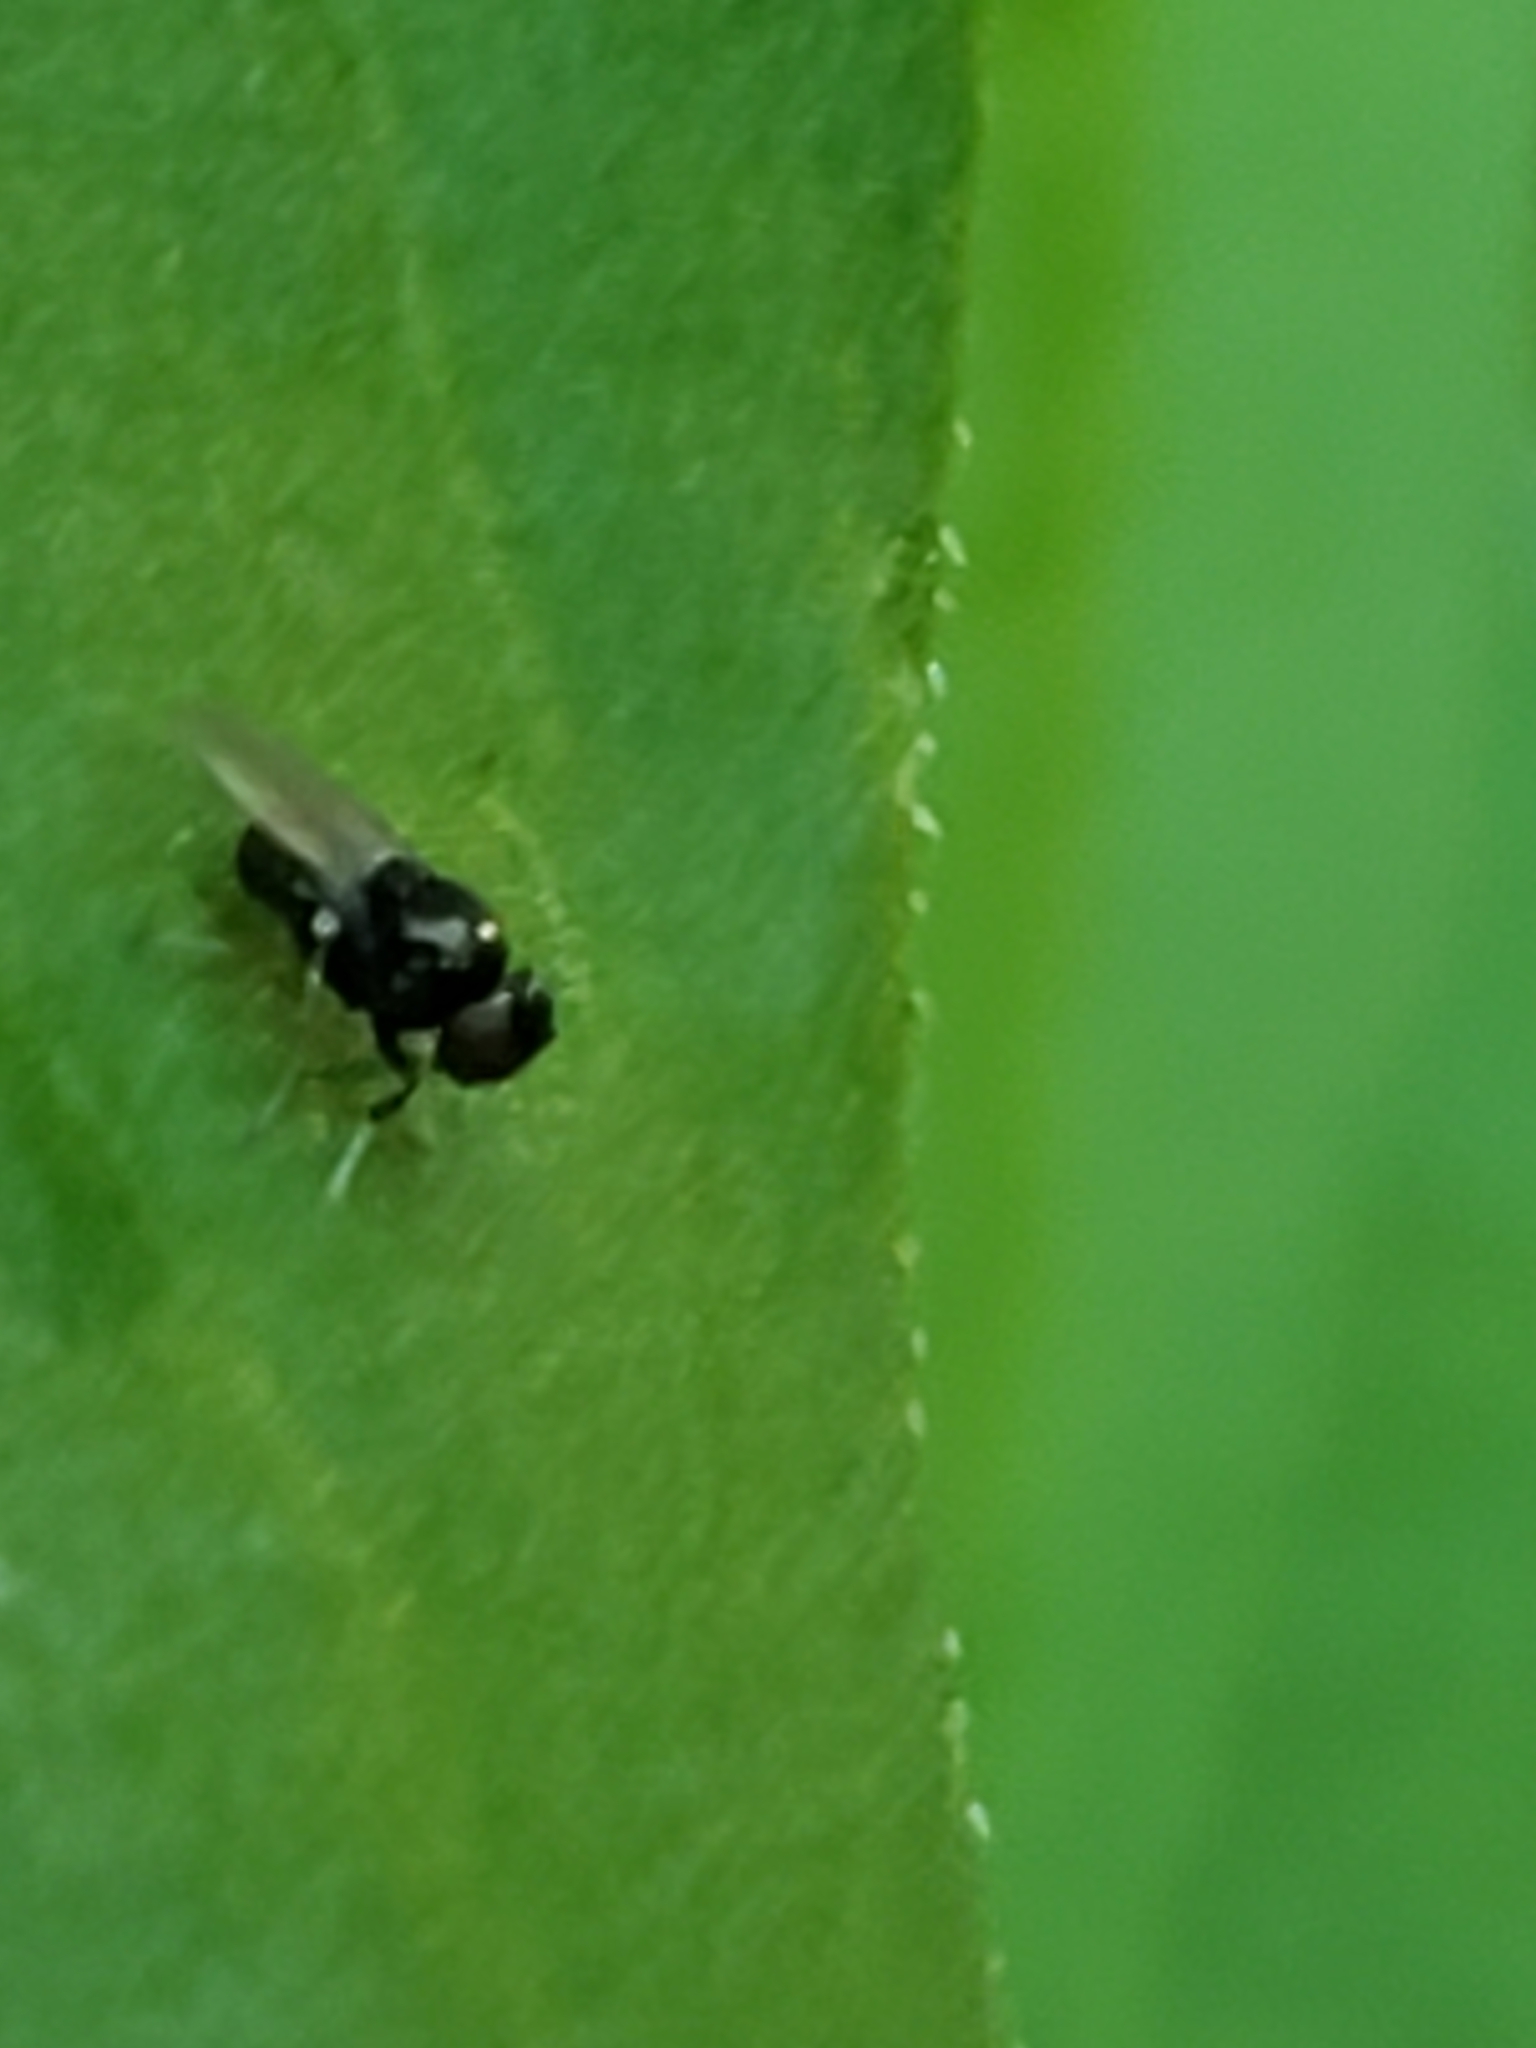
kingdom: Animalia
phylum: Arthropoda
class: Insecta
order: Diptera
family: Ephydridae
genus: Athyroglossa
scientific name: Athyroglossa glaphyropus
